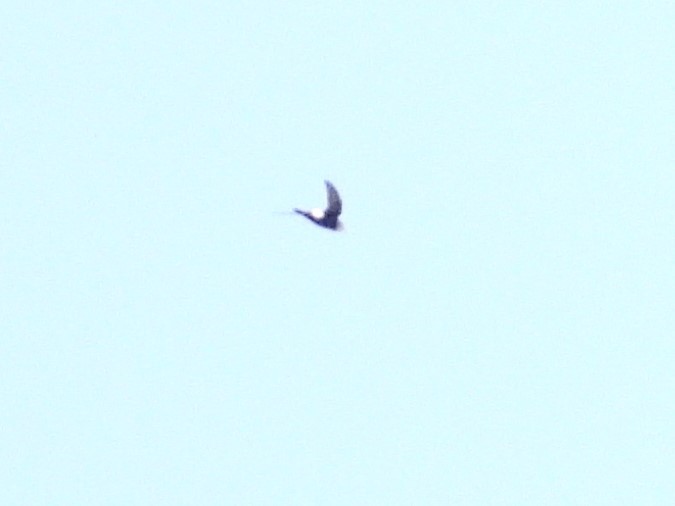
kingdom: Animalia
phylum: Chordata
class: Aves
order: Apodiformes
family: Apodidae
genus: Apus
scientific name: Apus pacificus
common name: Pacific swift
